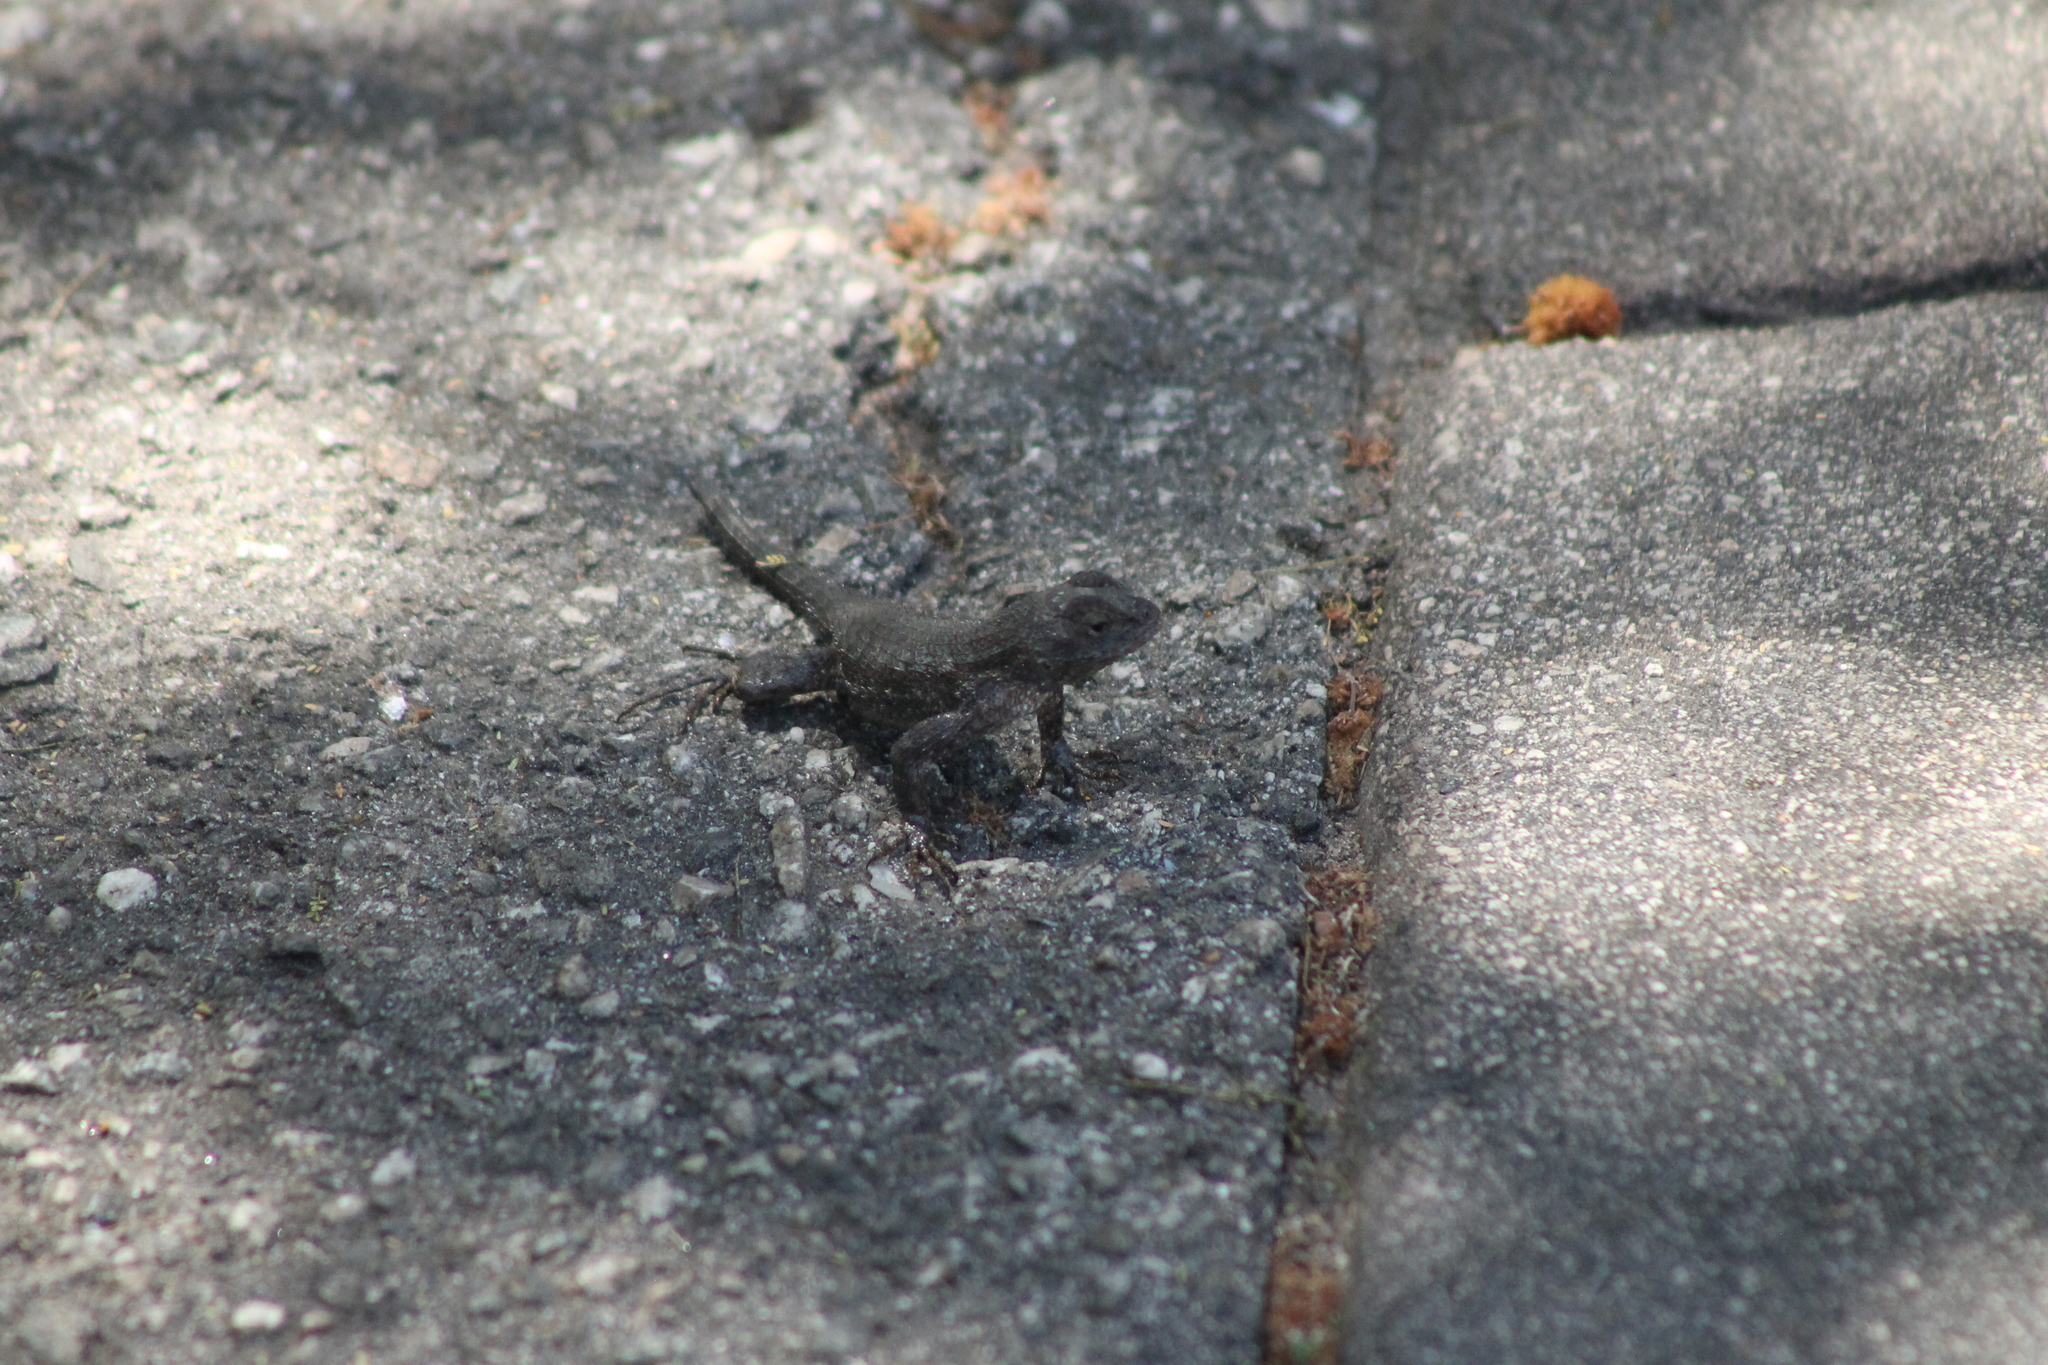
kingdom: Animalia
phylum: Chordata
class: Squamata
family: Phrynosomatidae
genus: Sceloporus
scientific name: Sceloporus occidentalis
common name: Western fence lizard
